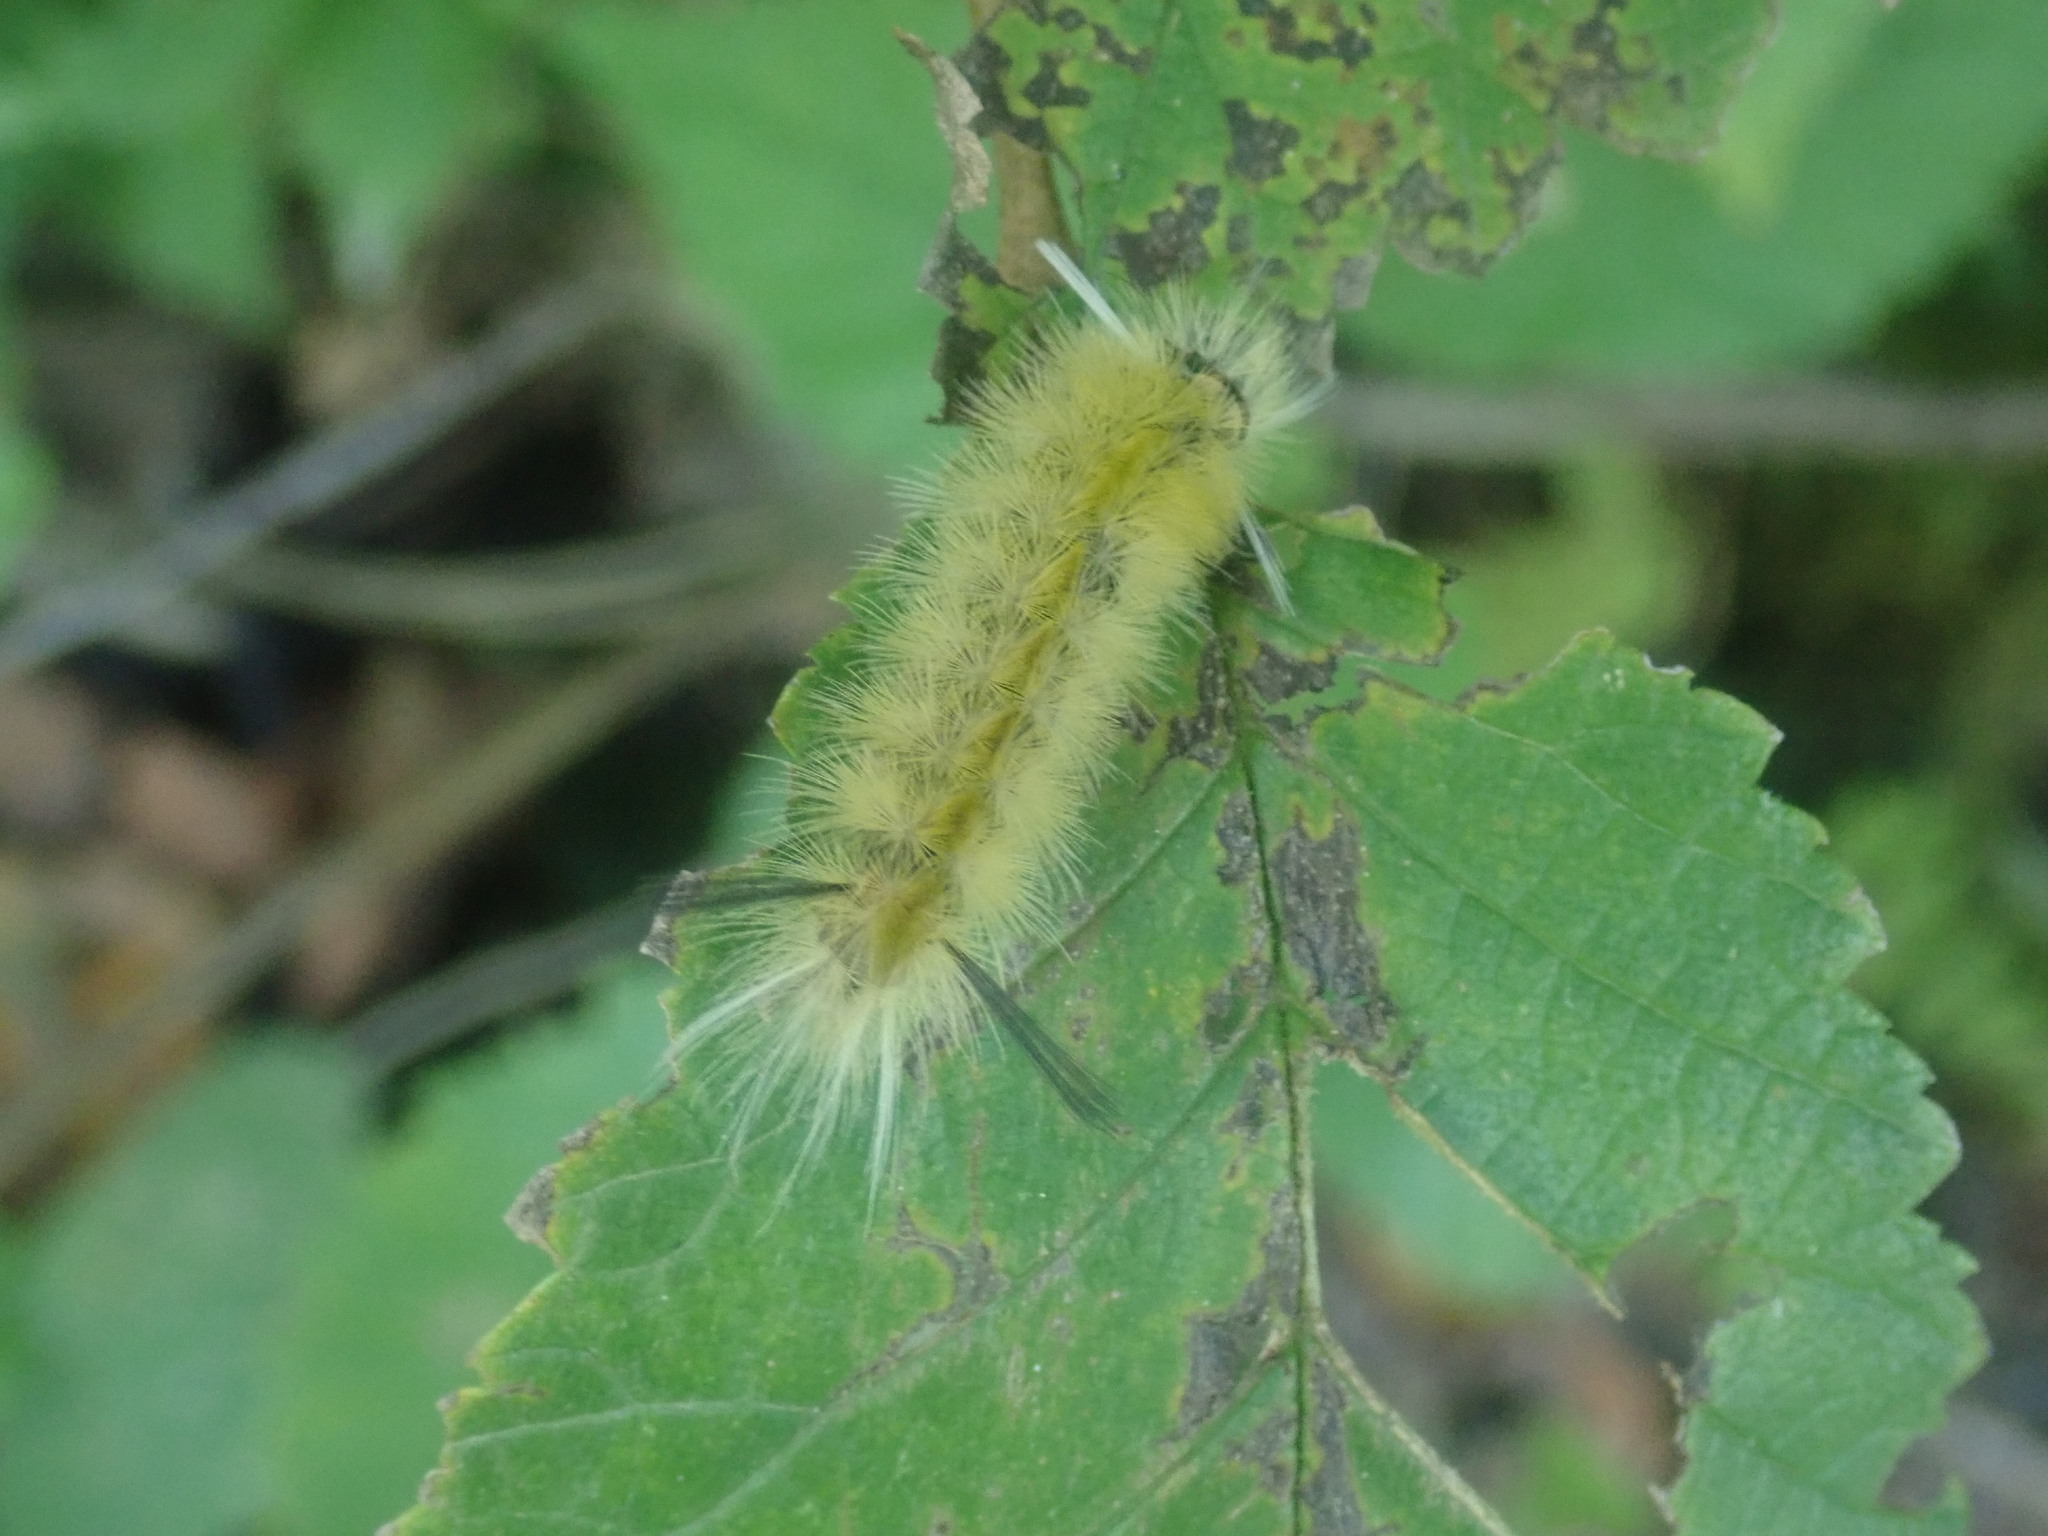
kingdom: Animalia
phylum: Arthropoda
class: Insecta
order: Lepidoptera
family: Erebidae
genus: Halysidota
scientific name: Halysidota tessellaris
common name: Banded tussock moth
